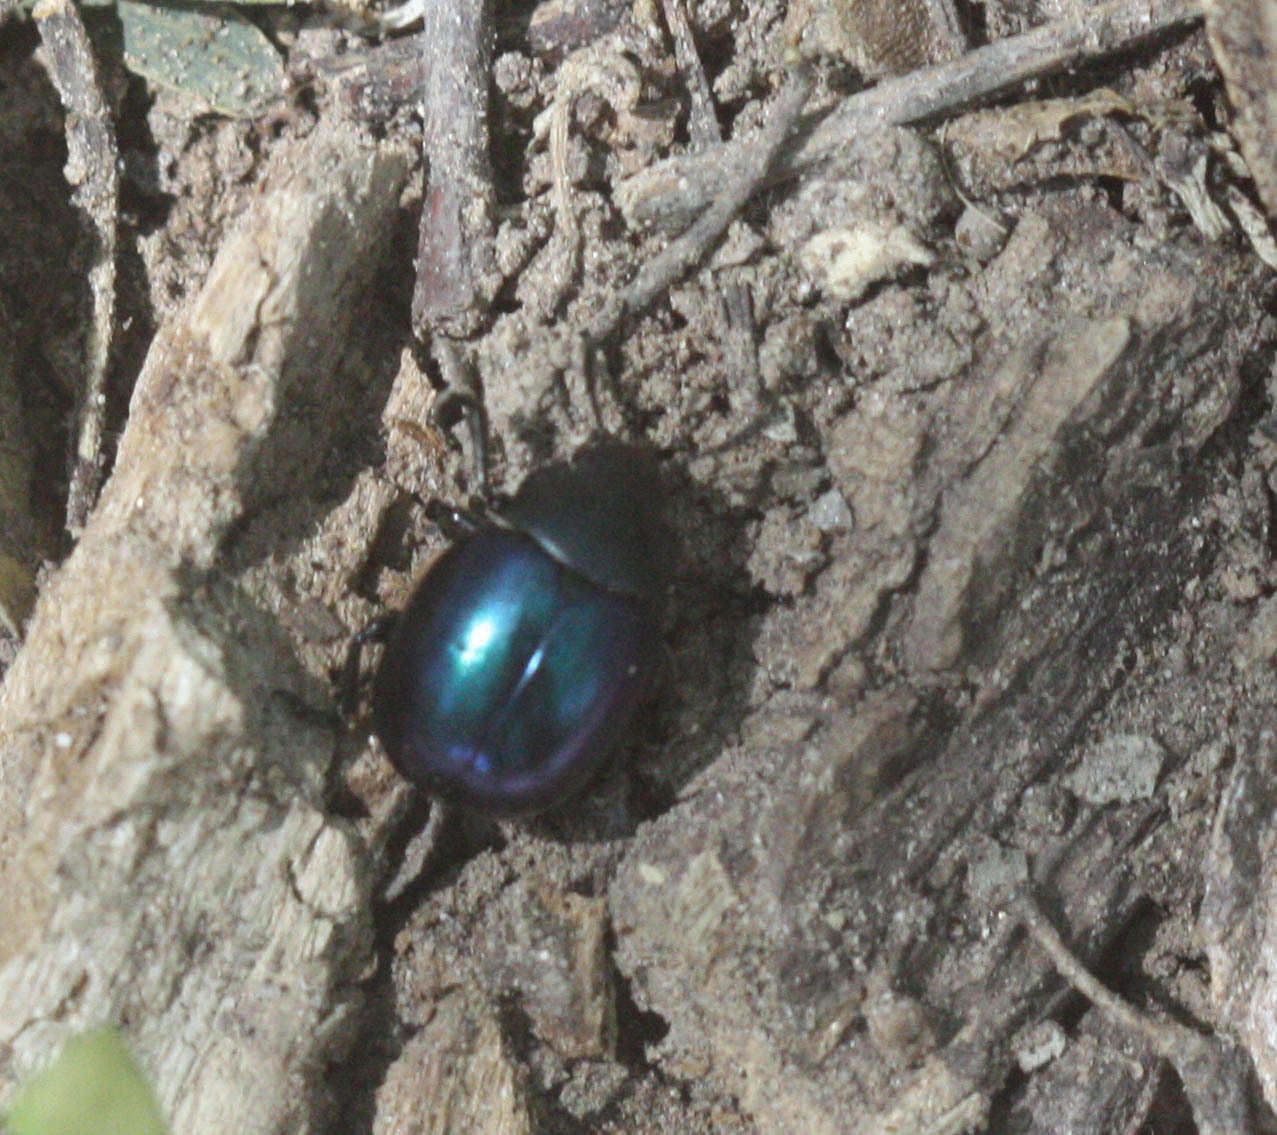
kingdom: Animalia
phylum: Arthropoda
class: Insecta
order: Coleoptera
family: Chrysomelidae
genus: Leptinotarsa
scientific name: Leptinotarsa haldemani
